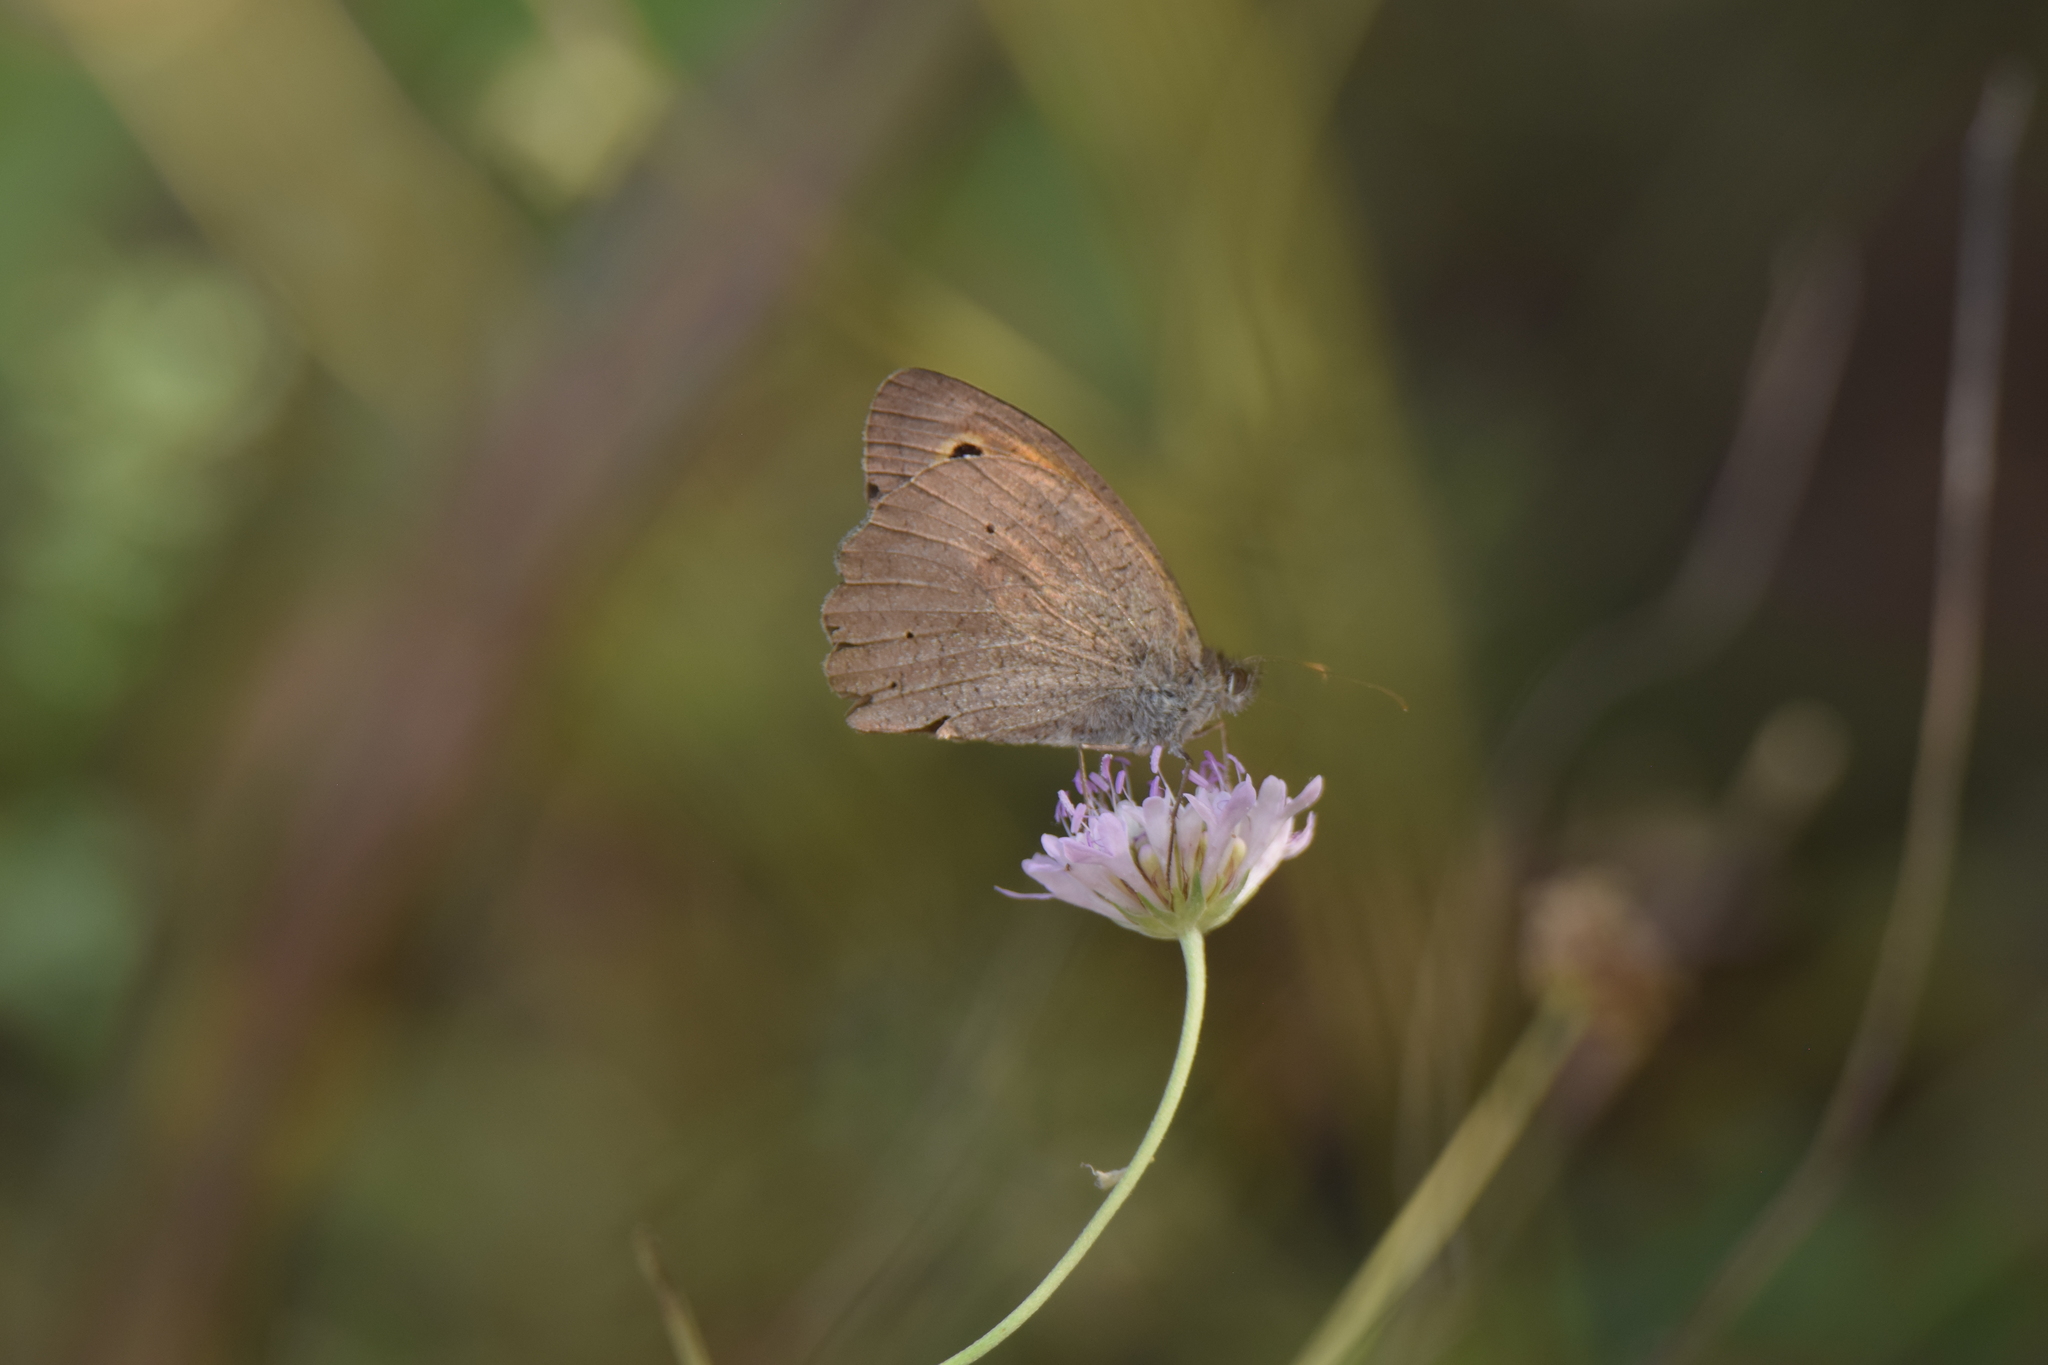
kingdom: Animalia
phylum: Arthropoda
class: Insecta
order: Lepidoptera
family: Nymphalidae
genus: Maniola
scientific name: Maniola jurtina
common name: Meadow brown
